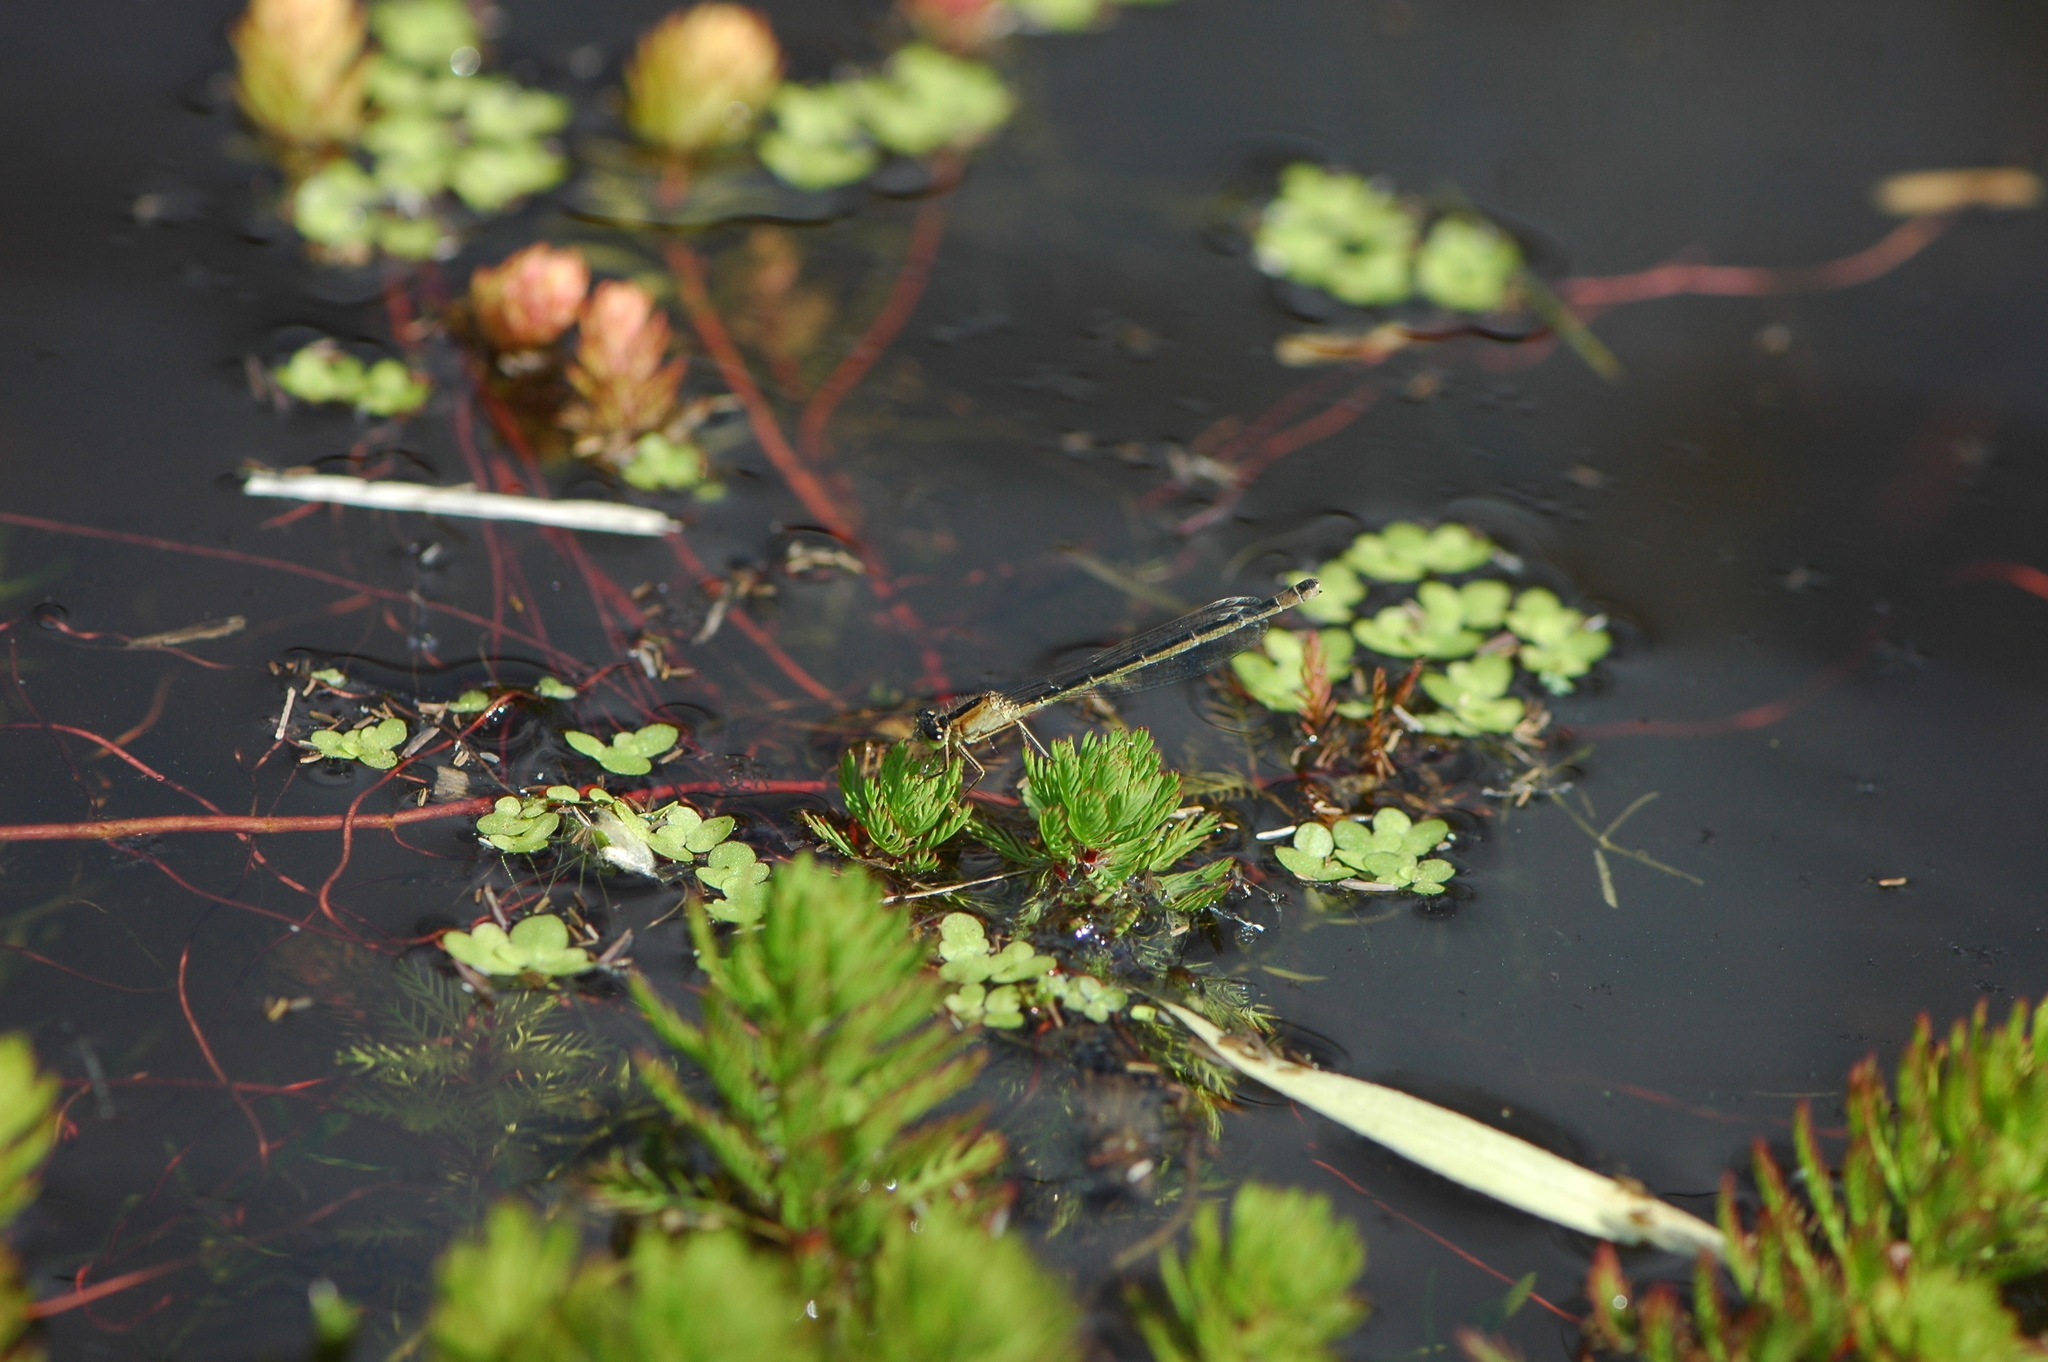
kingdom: Animalia
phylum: Arthropoda
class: Insecta
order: Odonata
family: Coenagrionidae
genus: Ischnura
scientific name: Ischnura elegans
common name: Blue-tailed damselfly
